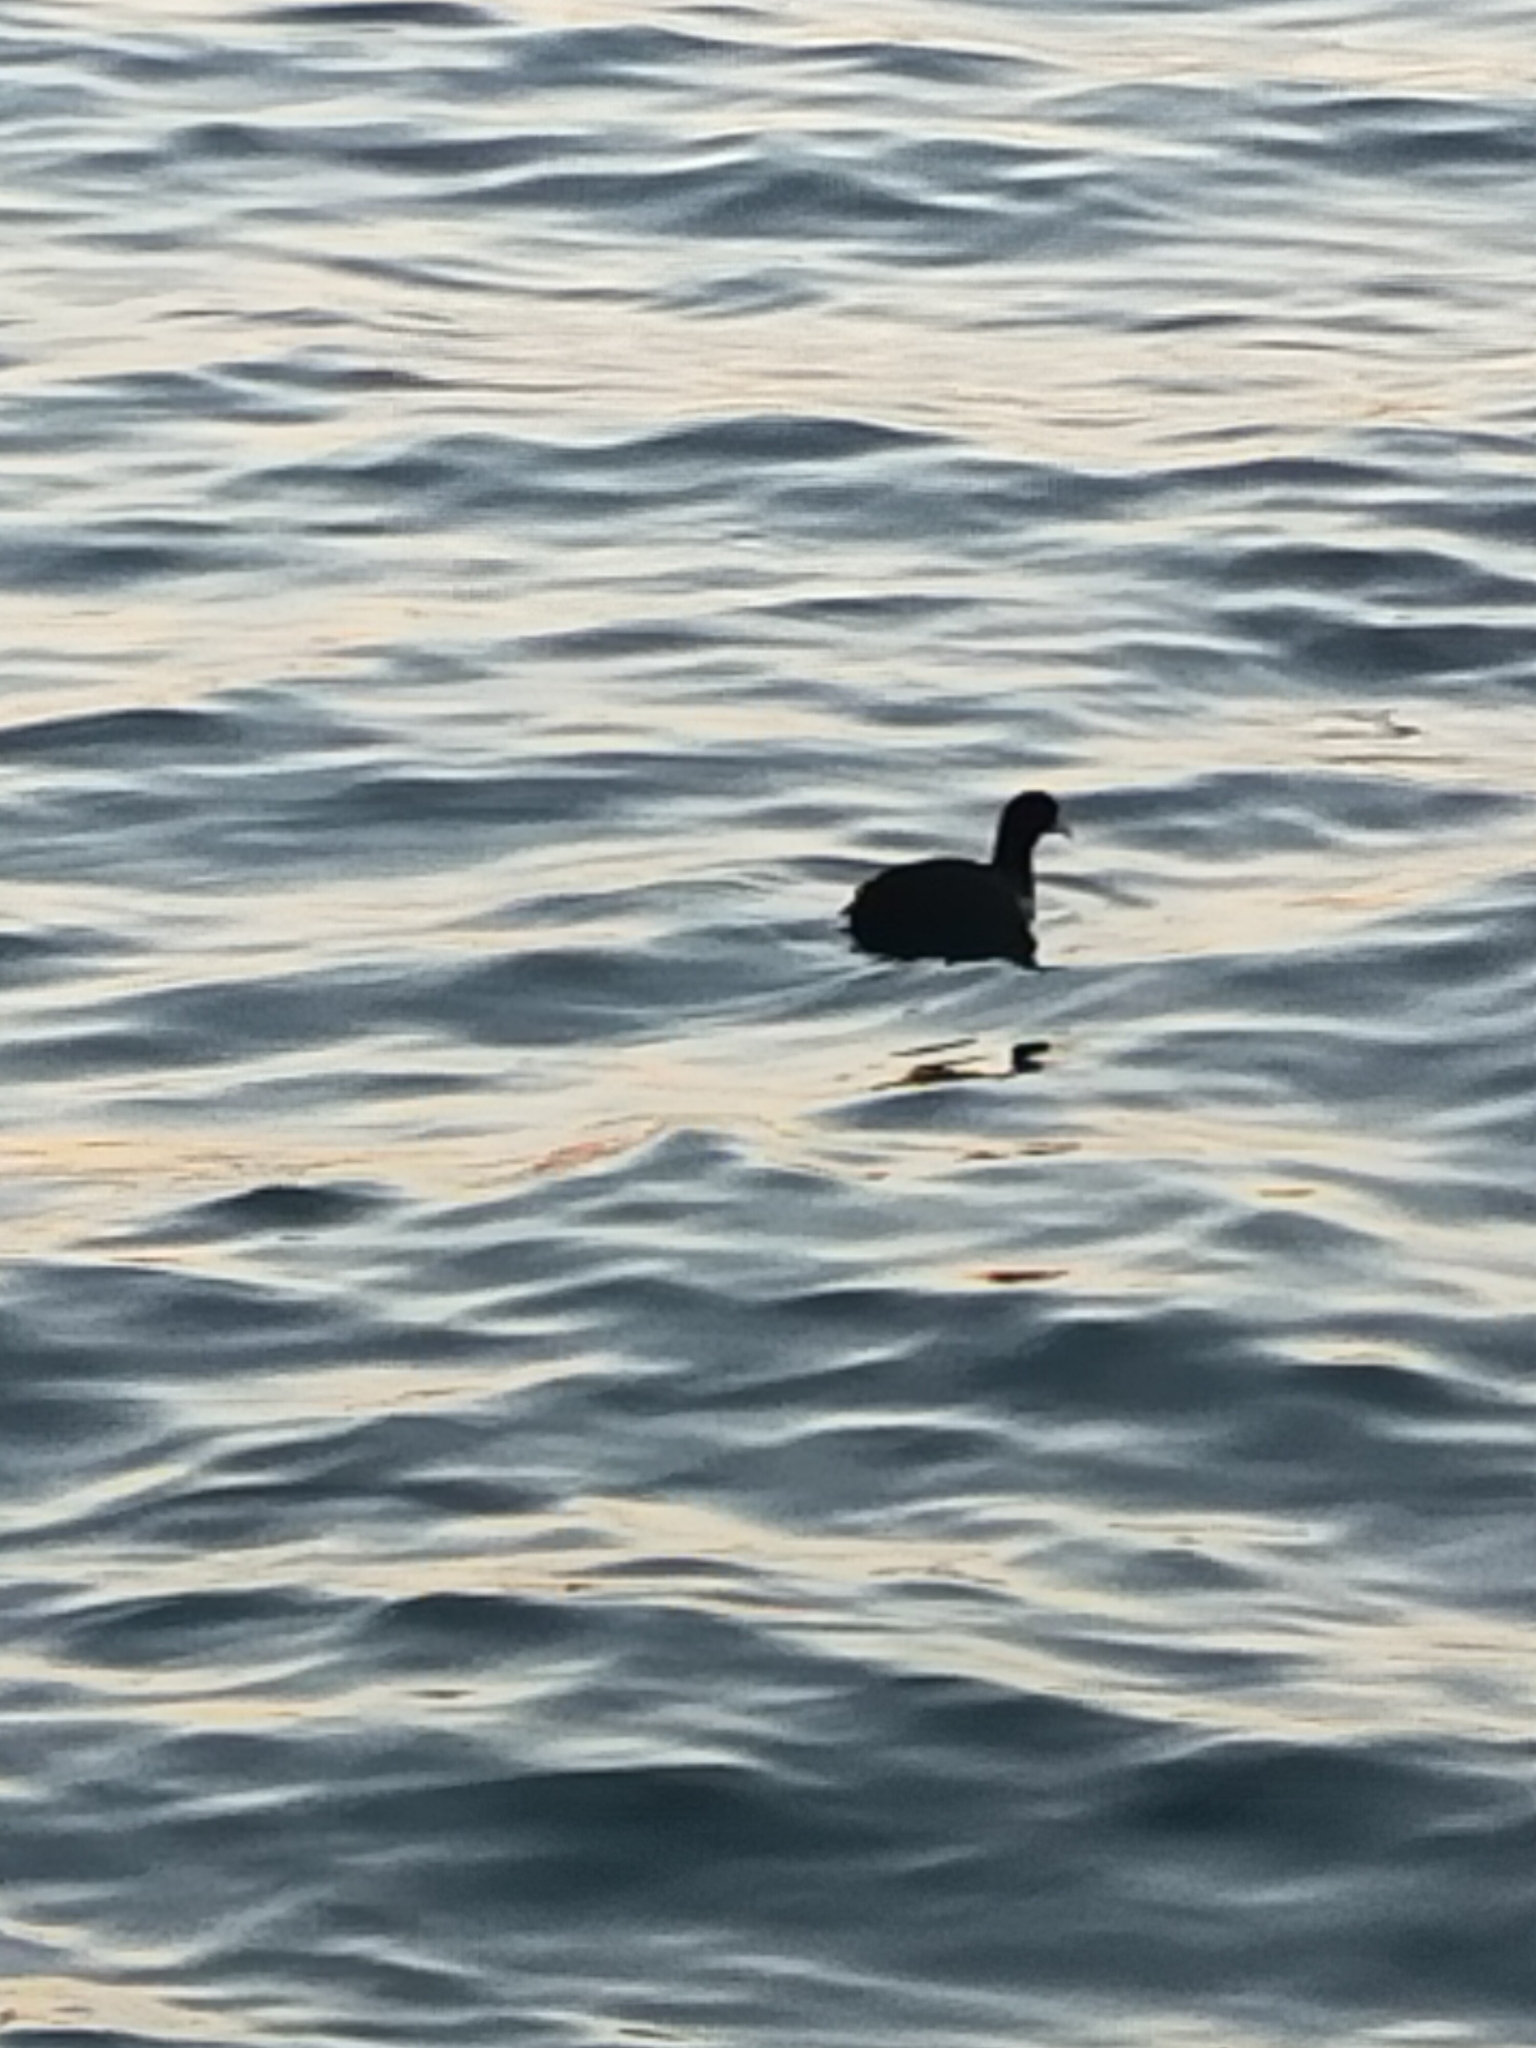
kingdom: Animalia
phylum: Chordata
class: Aves
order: Gruiformes
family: Rallidae
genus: Fulica
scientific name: Fulica atra
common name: Eurasian coot
